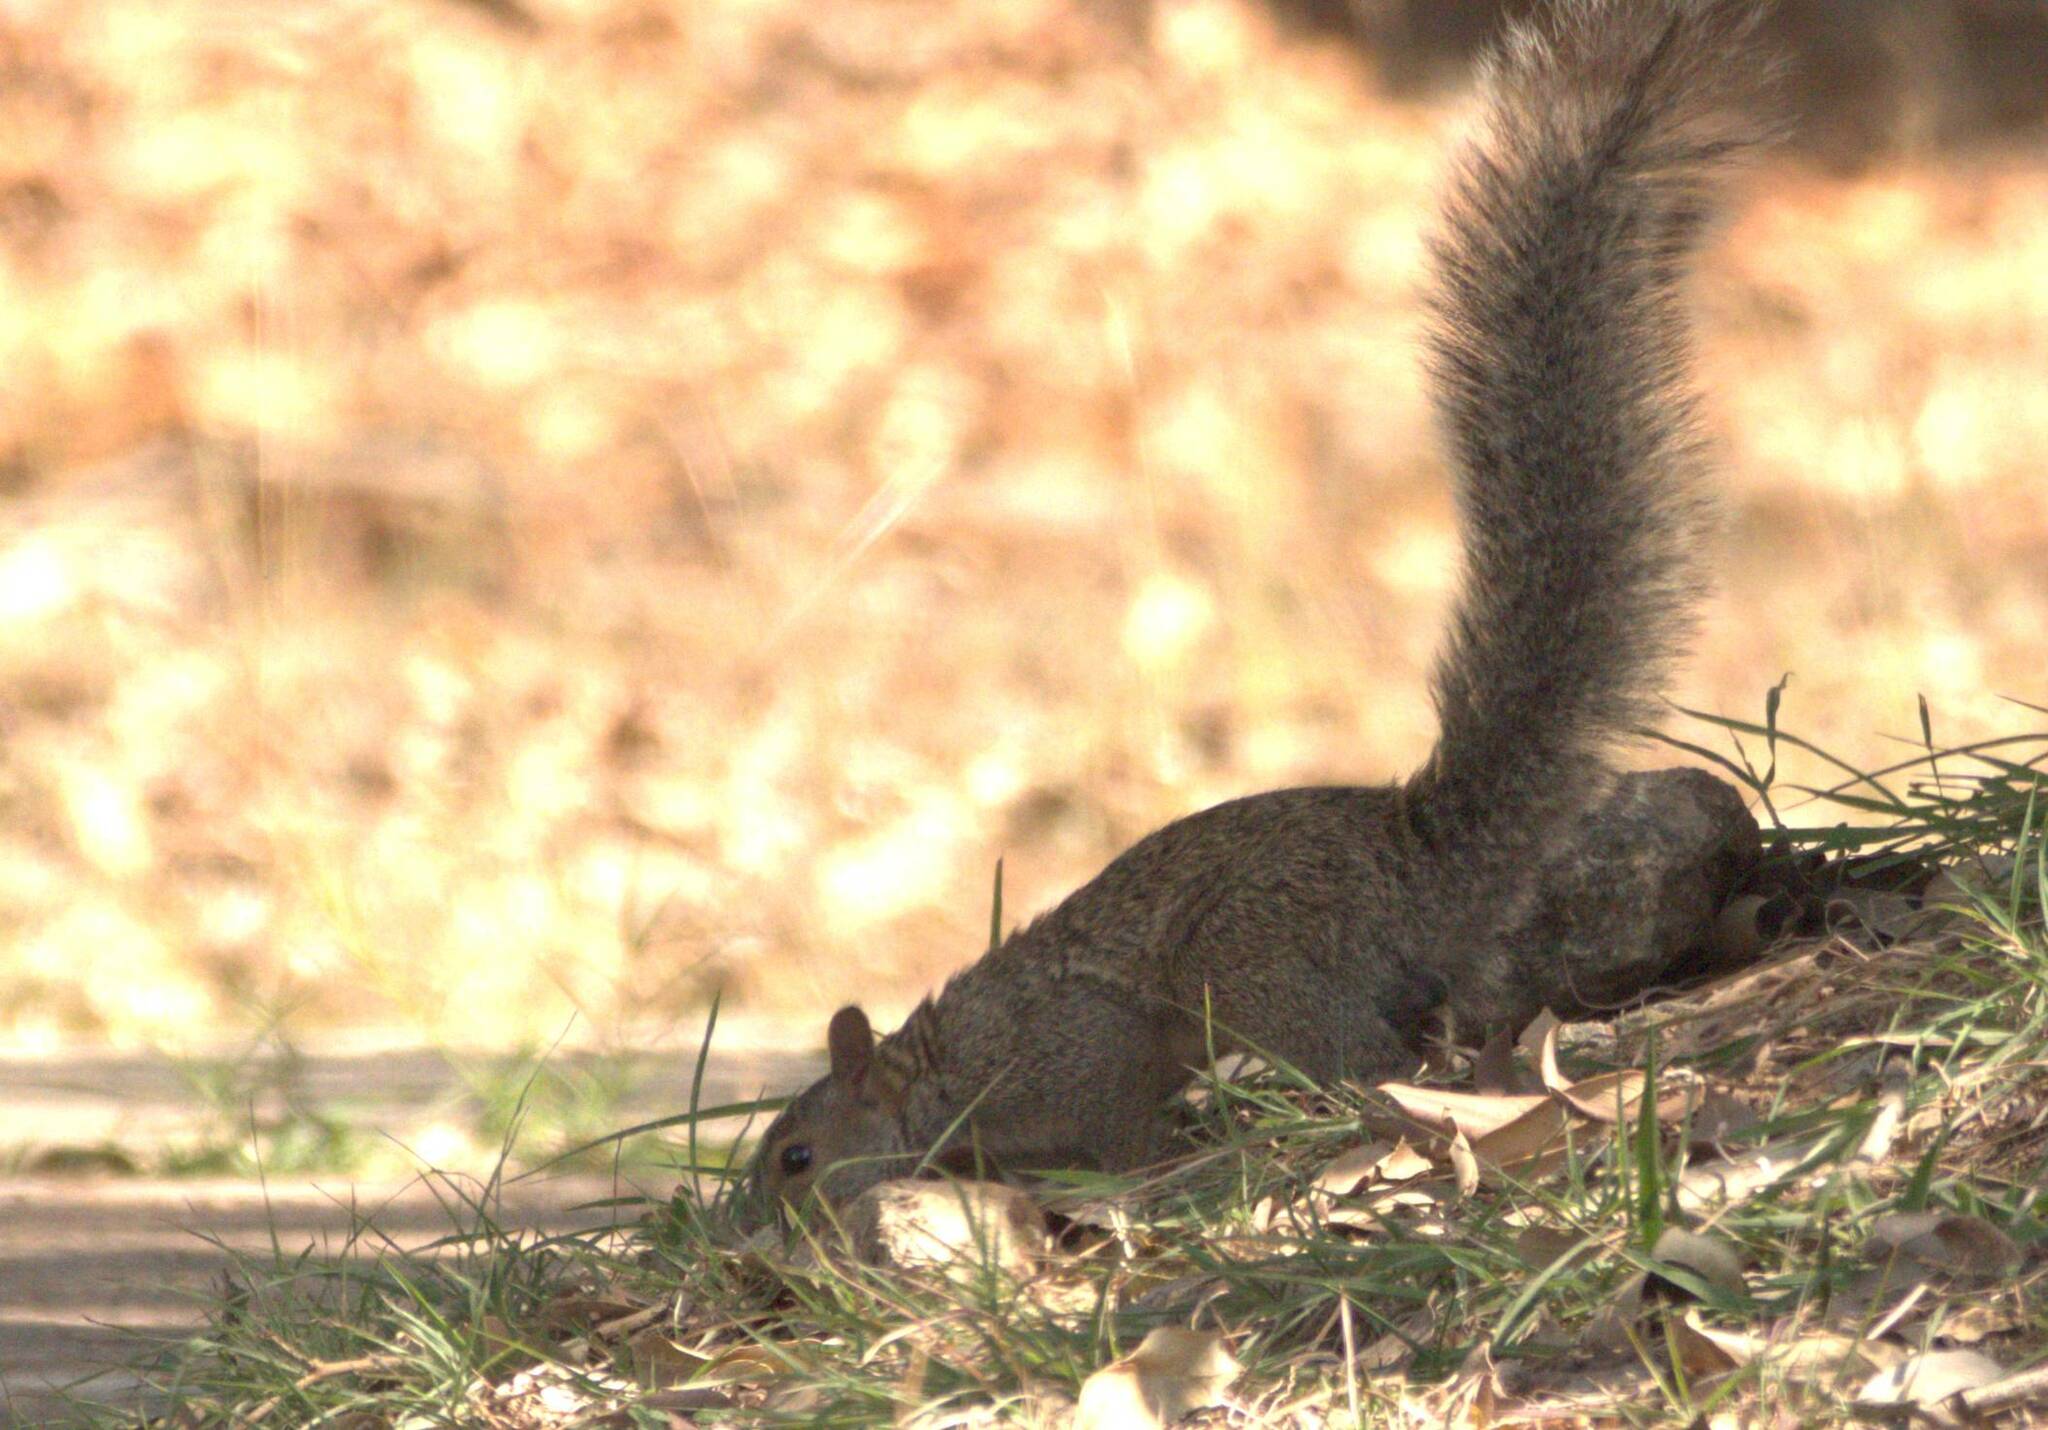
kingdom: Animalia
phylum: Chordata
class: Mammalia
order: Rodentia
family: Sciuridae
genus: Sciurus
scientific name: Sciurus yucatanensis
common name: Yucatan squirrel
